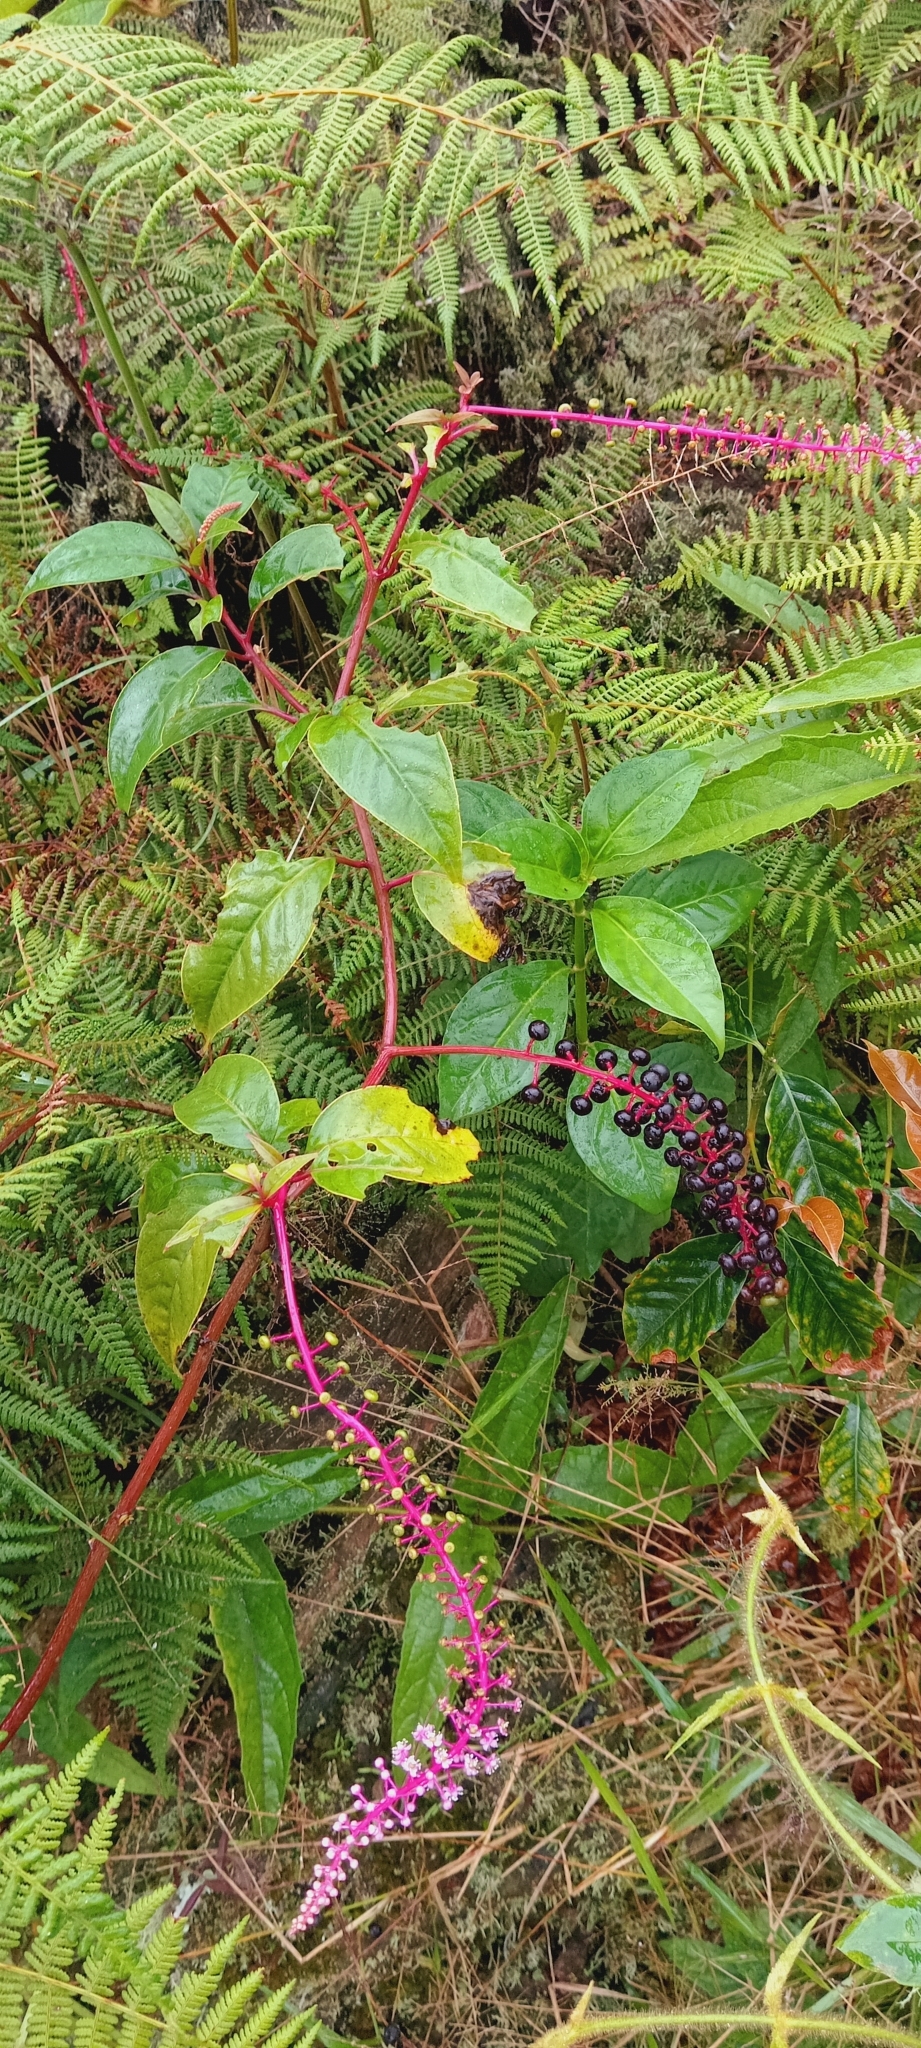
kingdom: Plantae
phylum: Tracheophyta
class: Magnoliopsida
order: Caryophyllales
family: Phytolaccaceae
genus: Phytolacca
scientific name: Phytolacca rivinoides
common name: Venezuelan pokeweed
